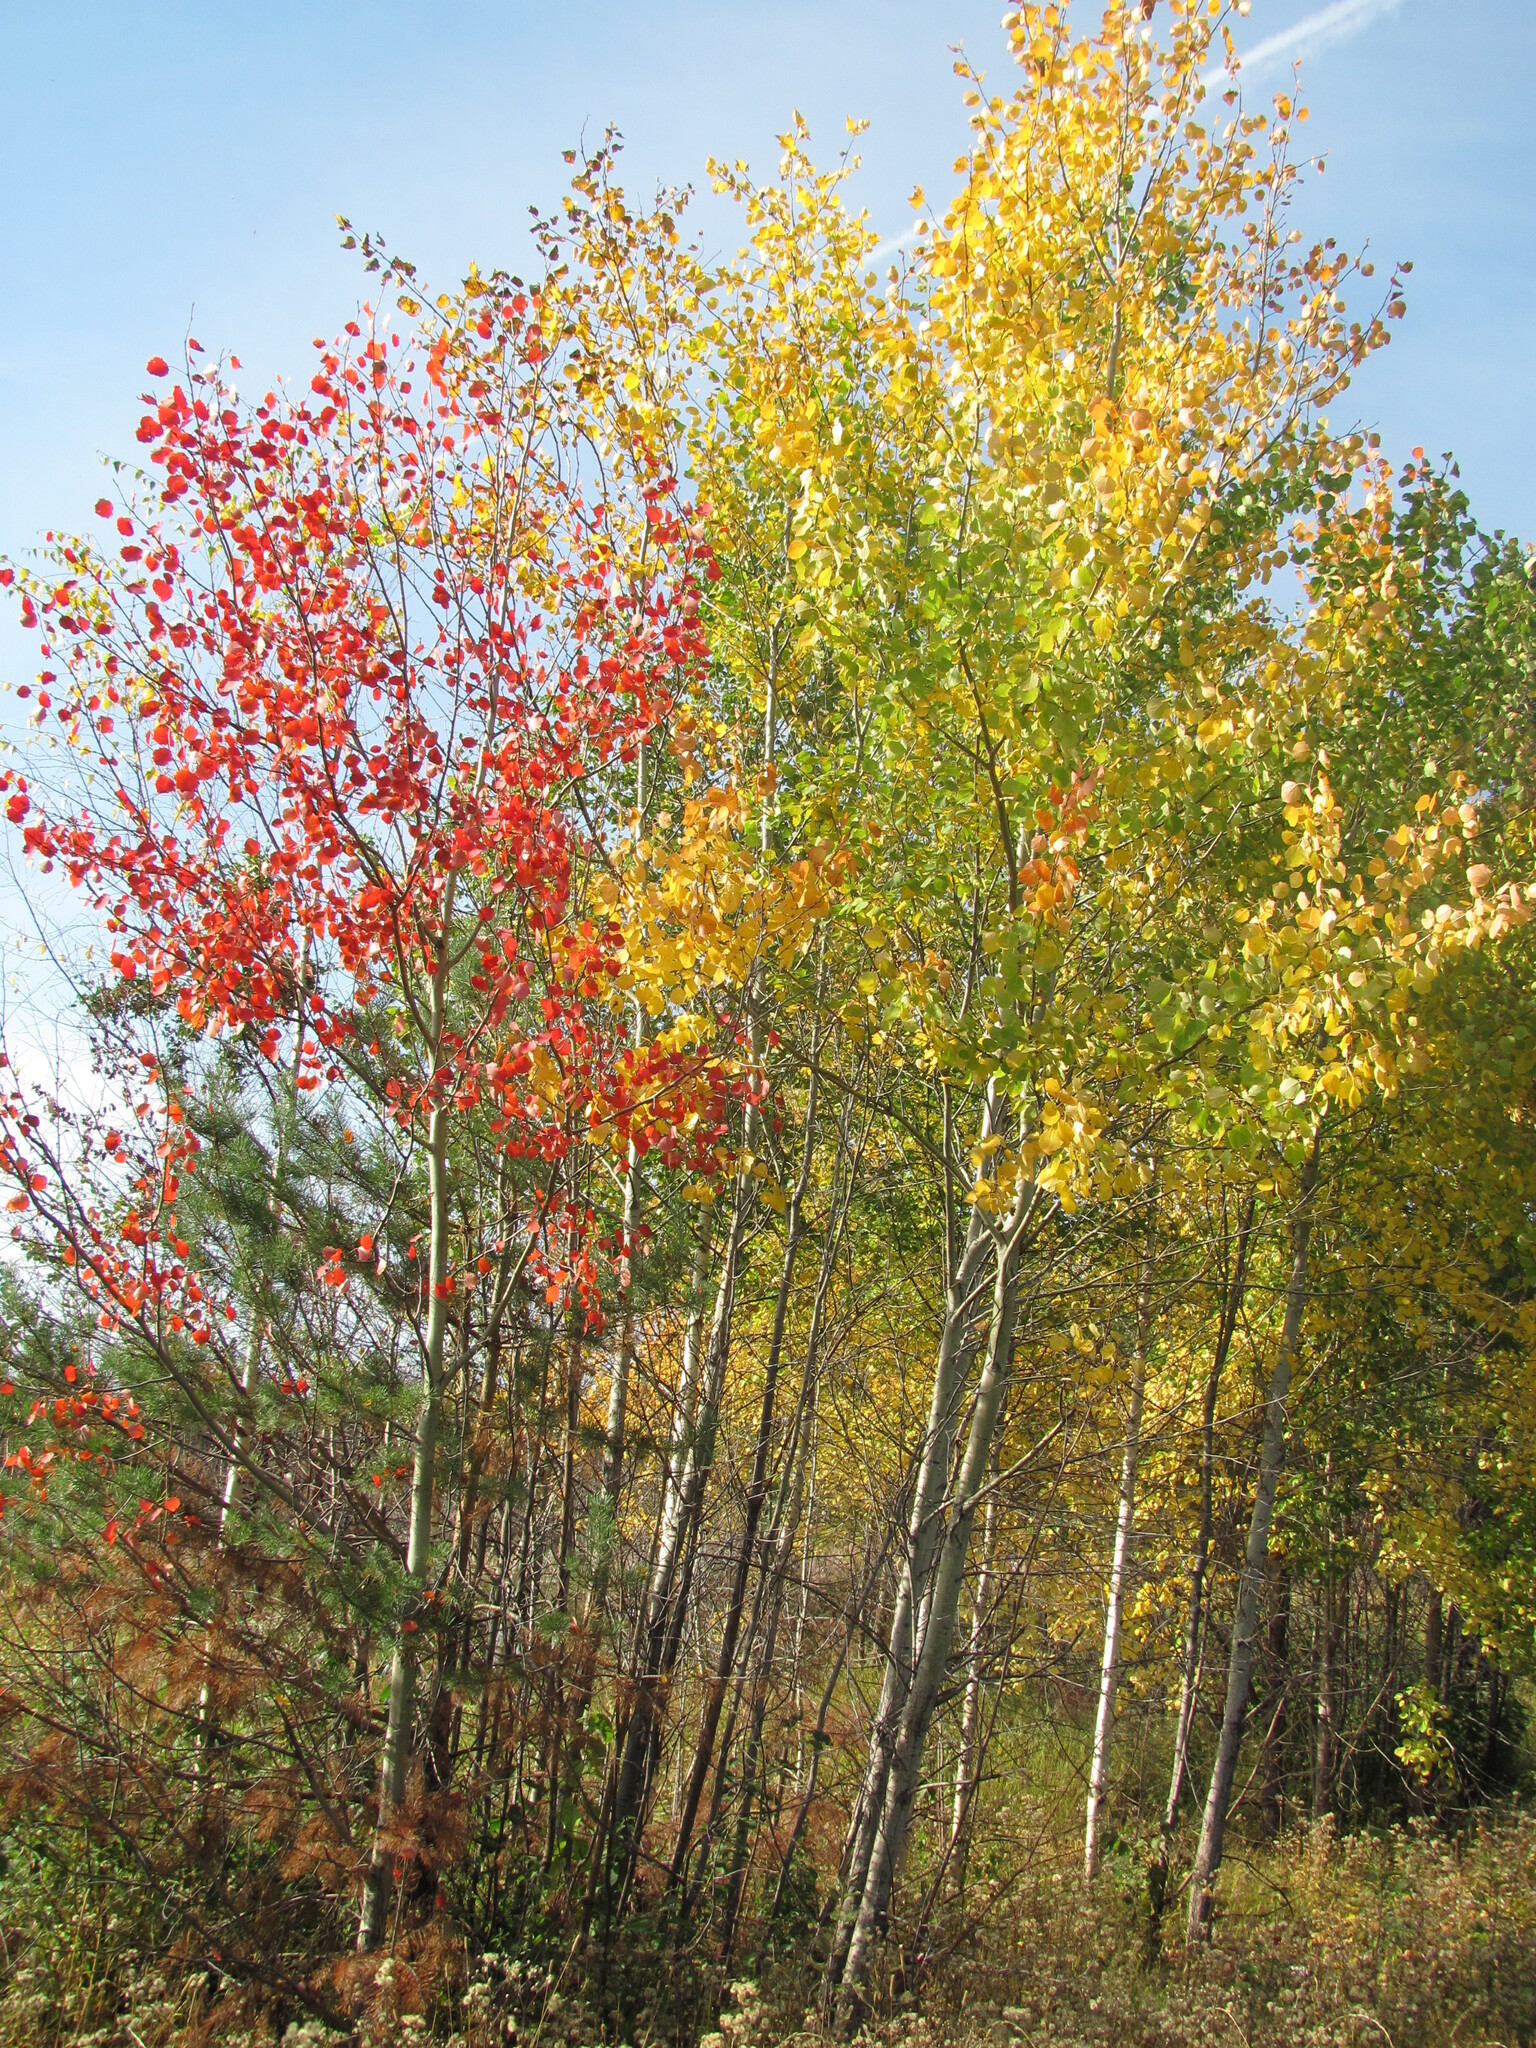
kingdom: Plantae
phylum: Tracheophyta
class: Magnoliopsida
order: Malpighiales
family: Salicaceae
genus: Populus
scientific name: Populus tremula
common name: European aspen
